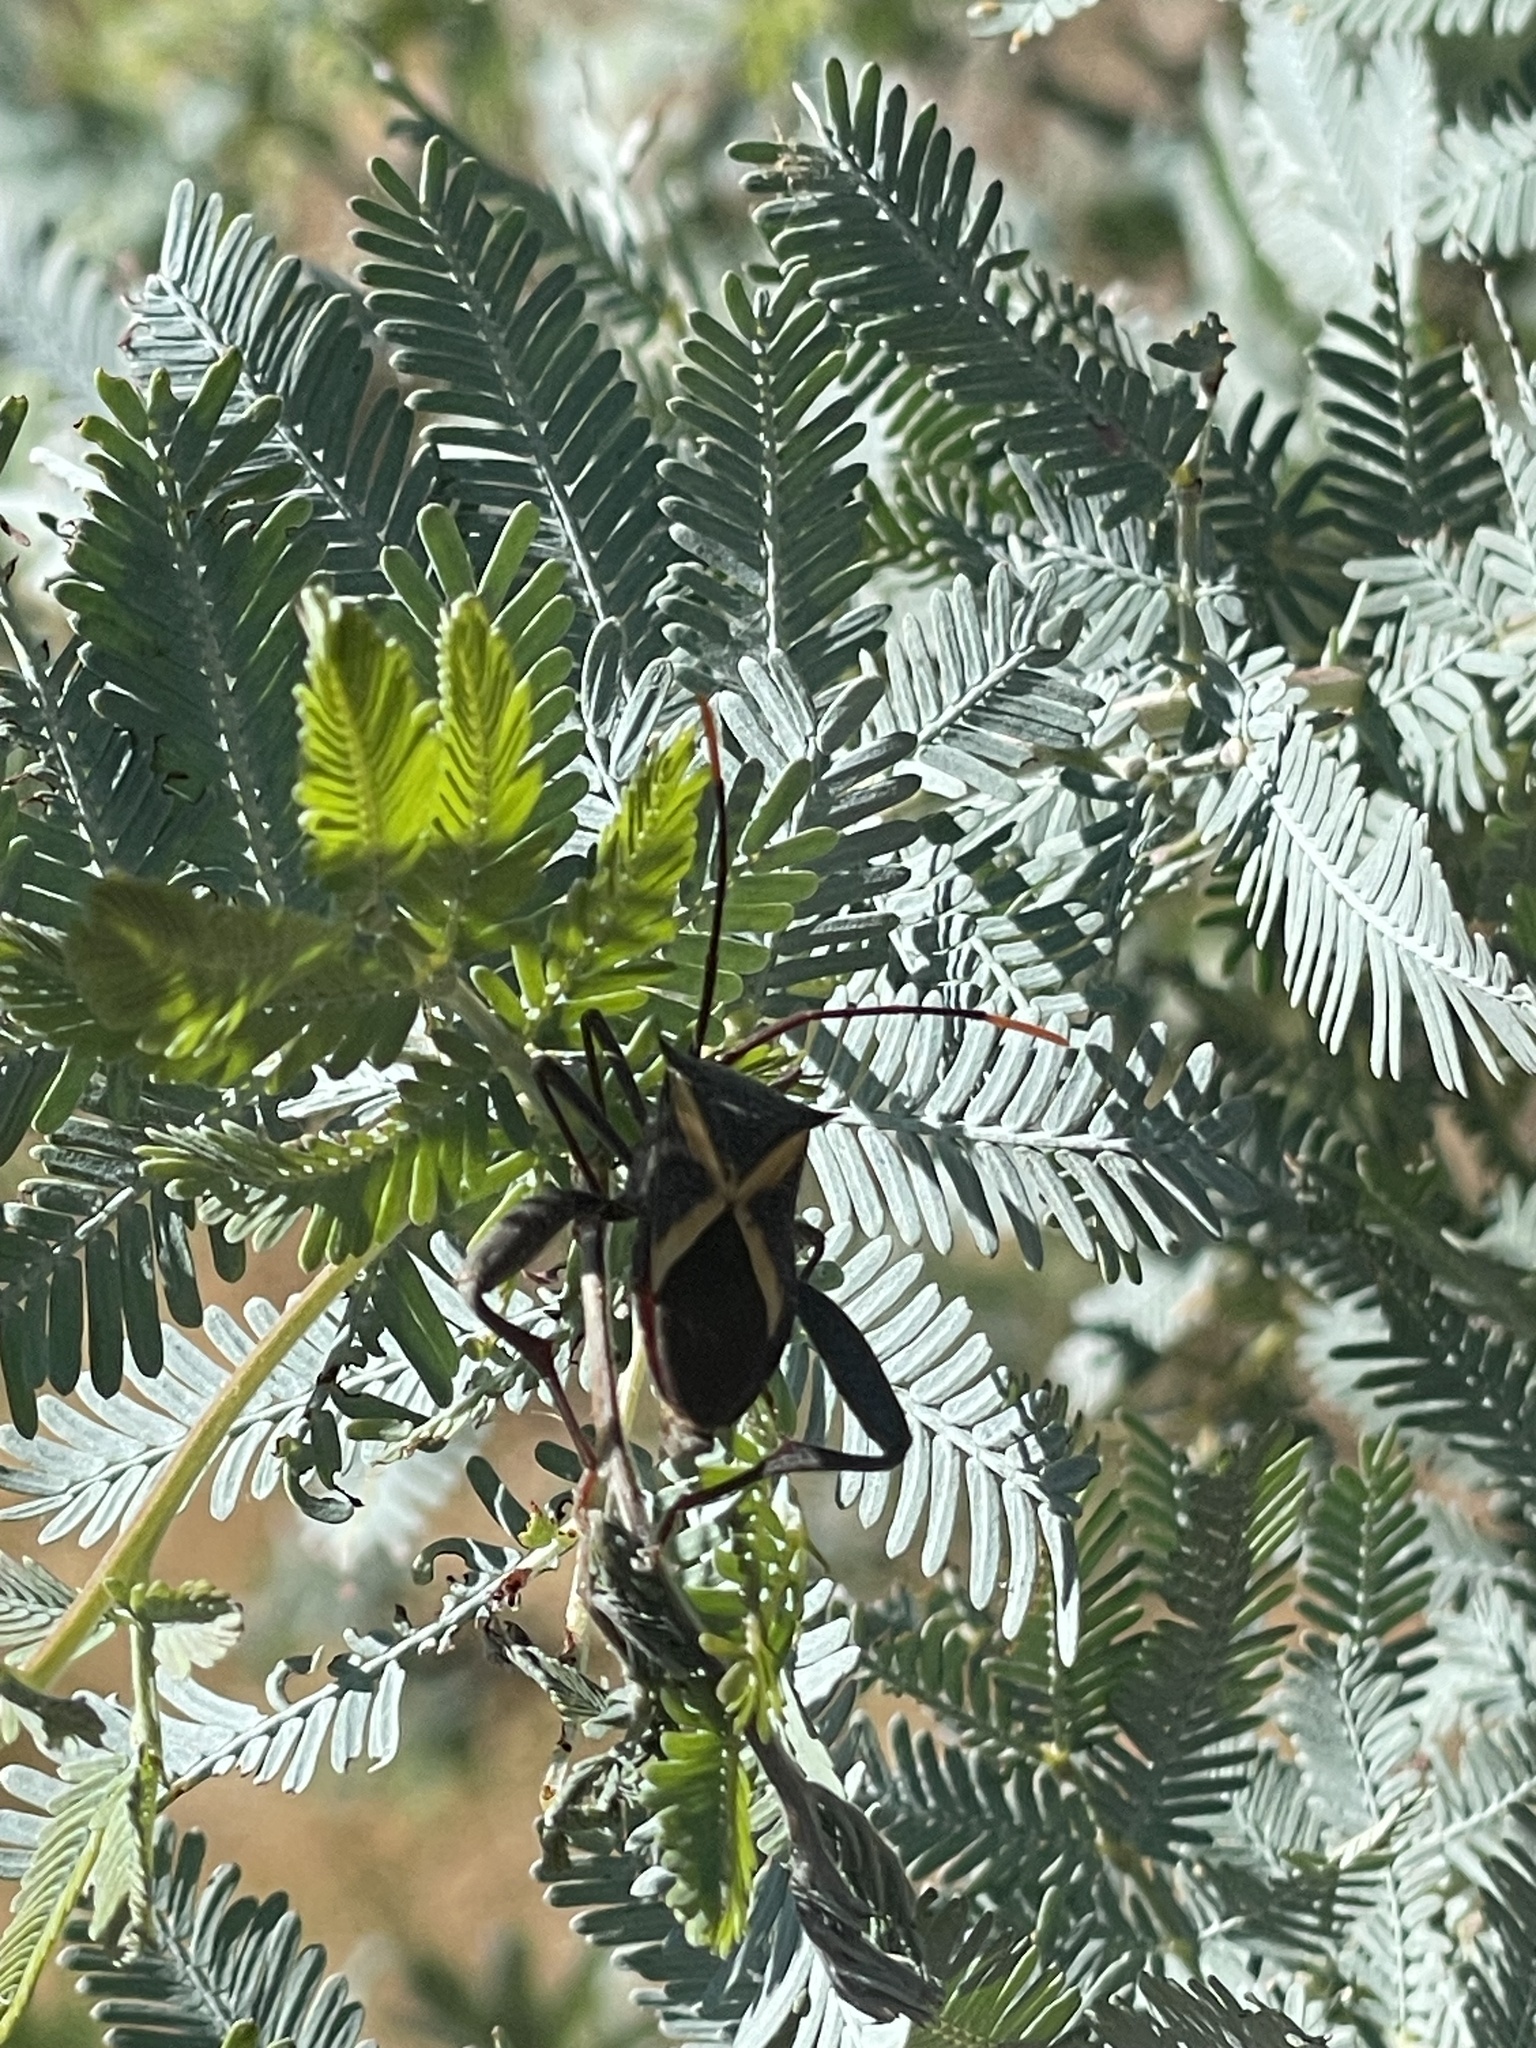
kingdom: Animalia
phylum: Arthropoda
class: Insecta
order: Hemiptera
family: Coreidae
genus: Mictis
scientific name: Mictis profana
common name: Crusader bug
